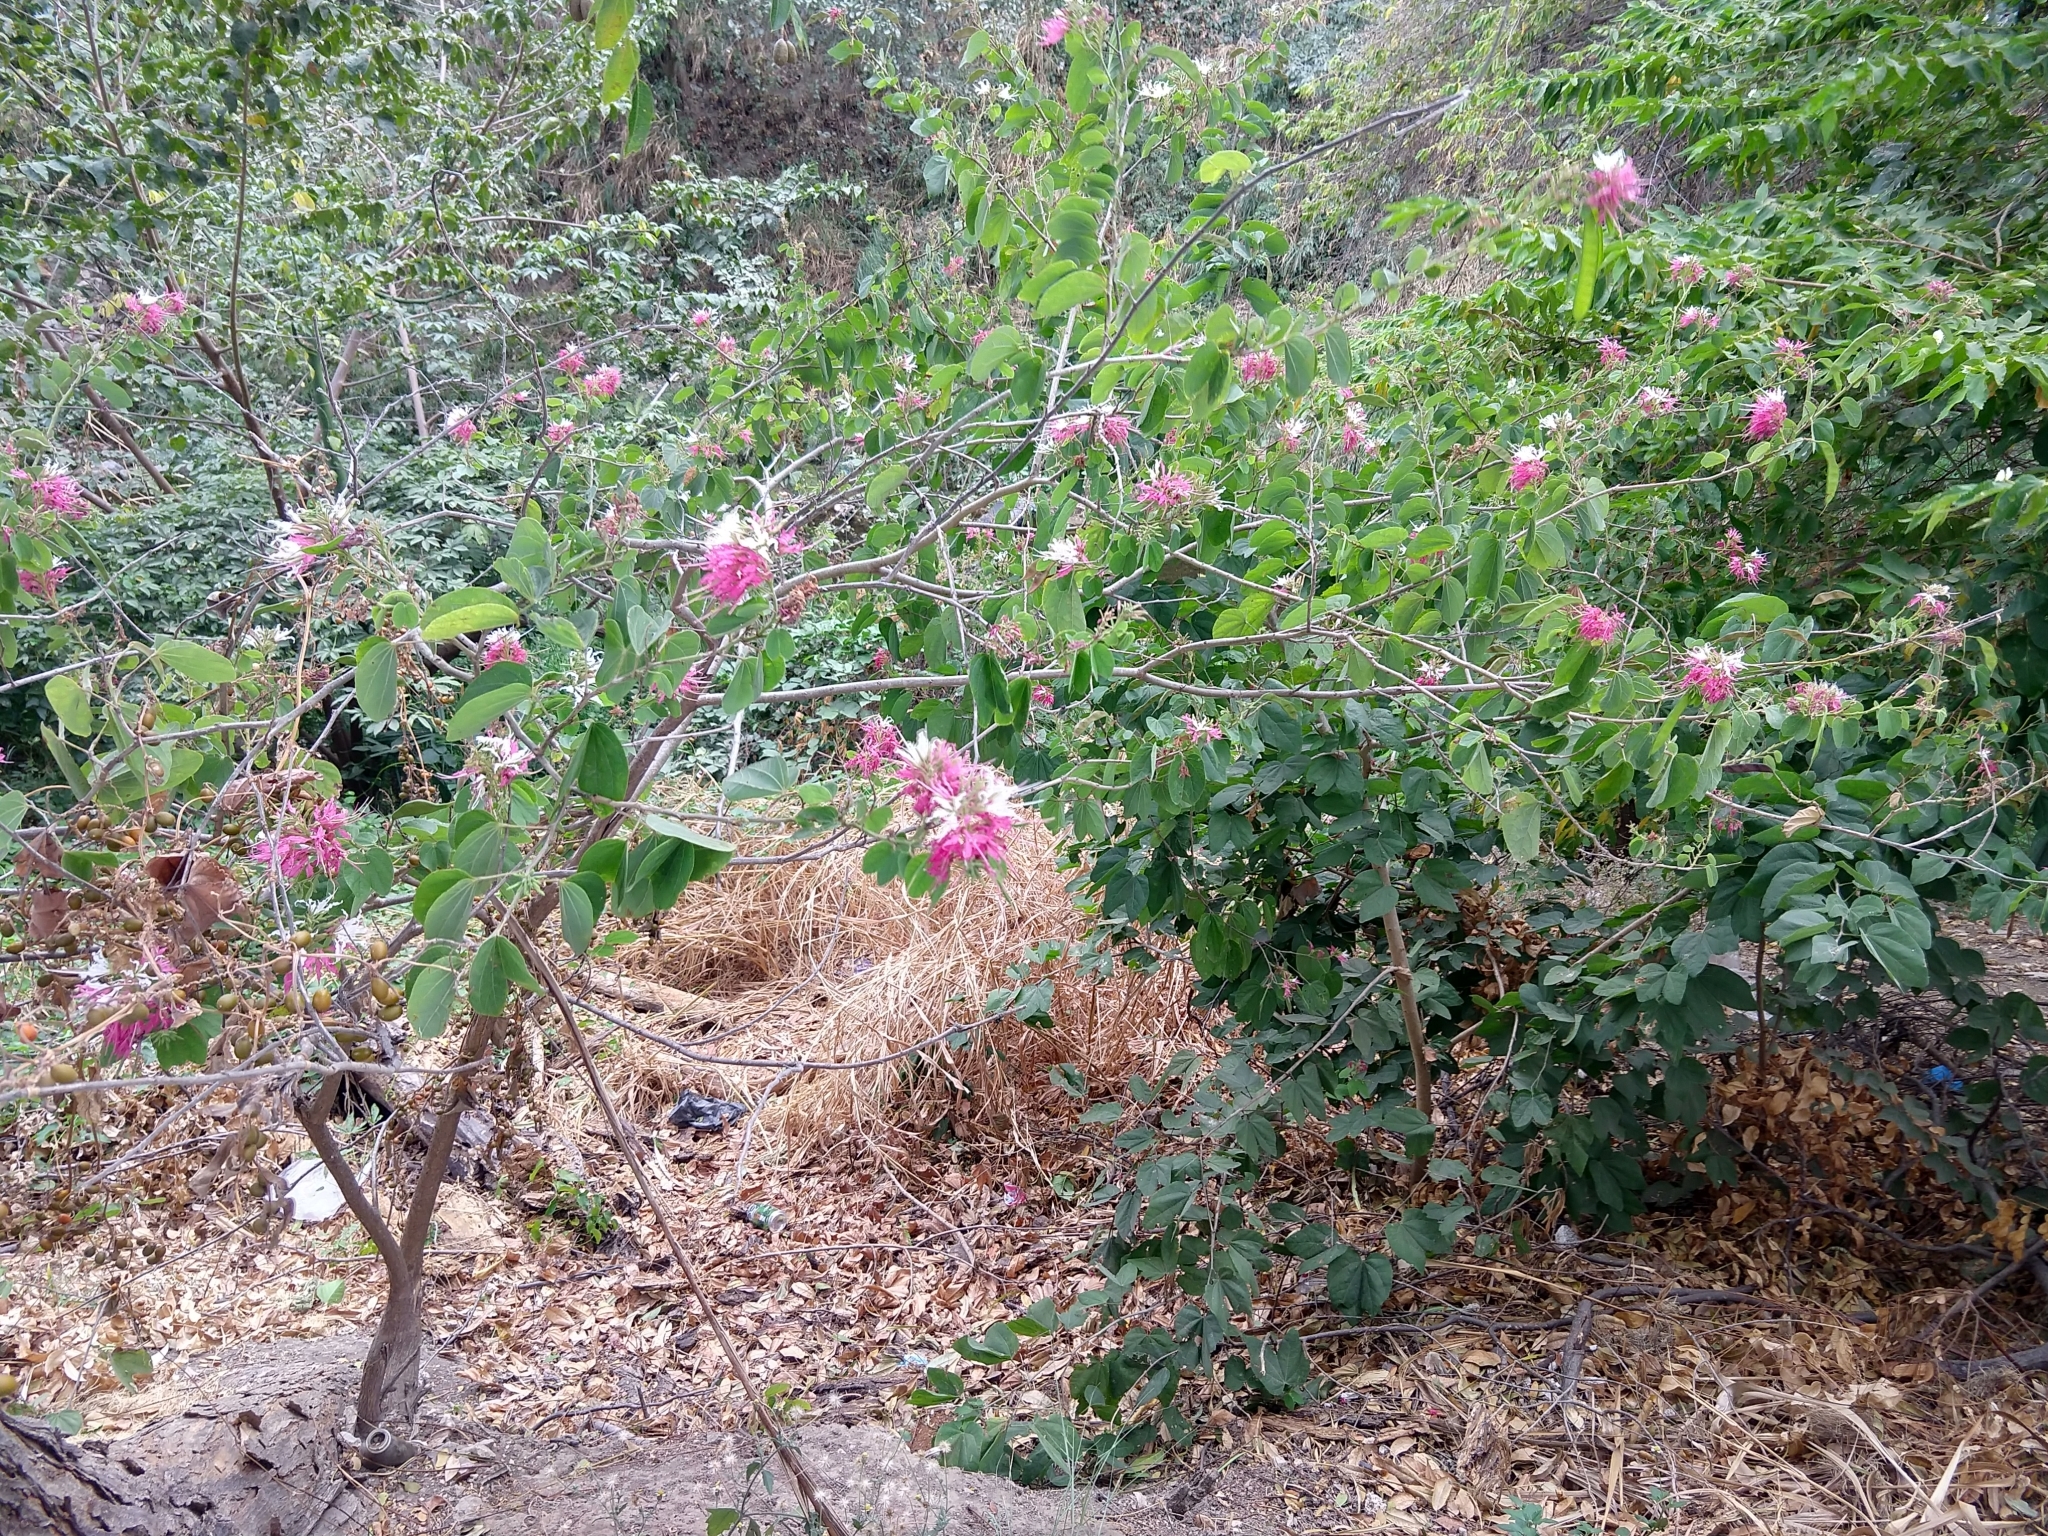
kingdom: Plantae
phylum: Tracheophyta
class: Magnoliopsida
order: Fabales
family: Fabaceae
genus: Bauhinia
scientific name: Bauhinia divaricata
